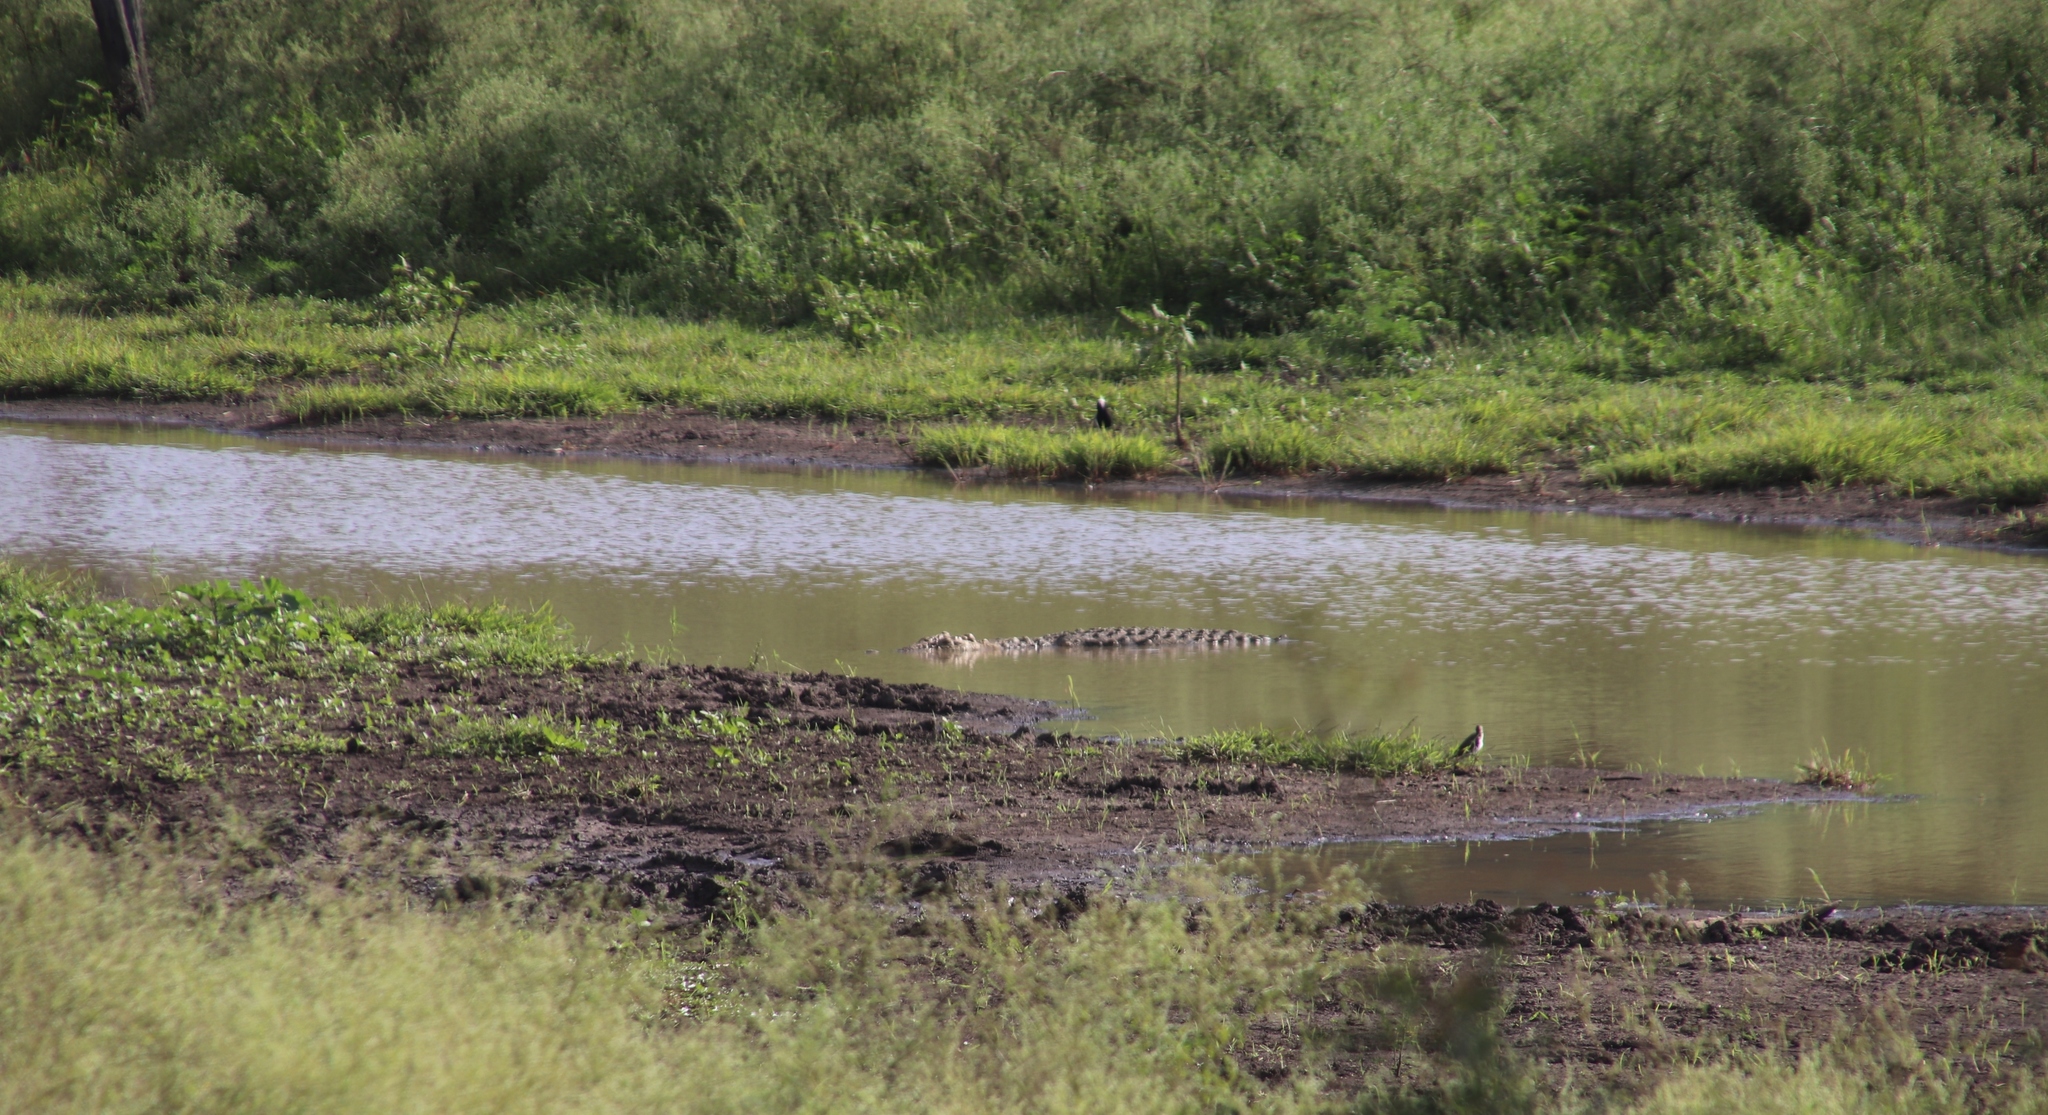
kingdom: Animalia
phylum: Chordata
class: Crocodylia
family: Crocodylidae
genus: Crocodylus
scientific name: Crocodylus niloticus
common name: Nile crocodile
